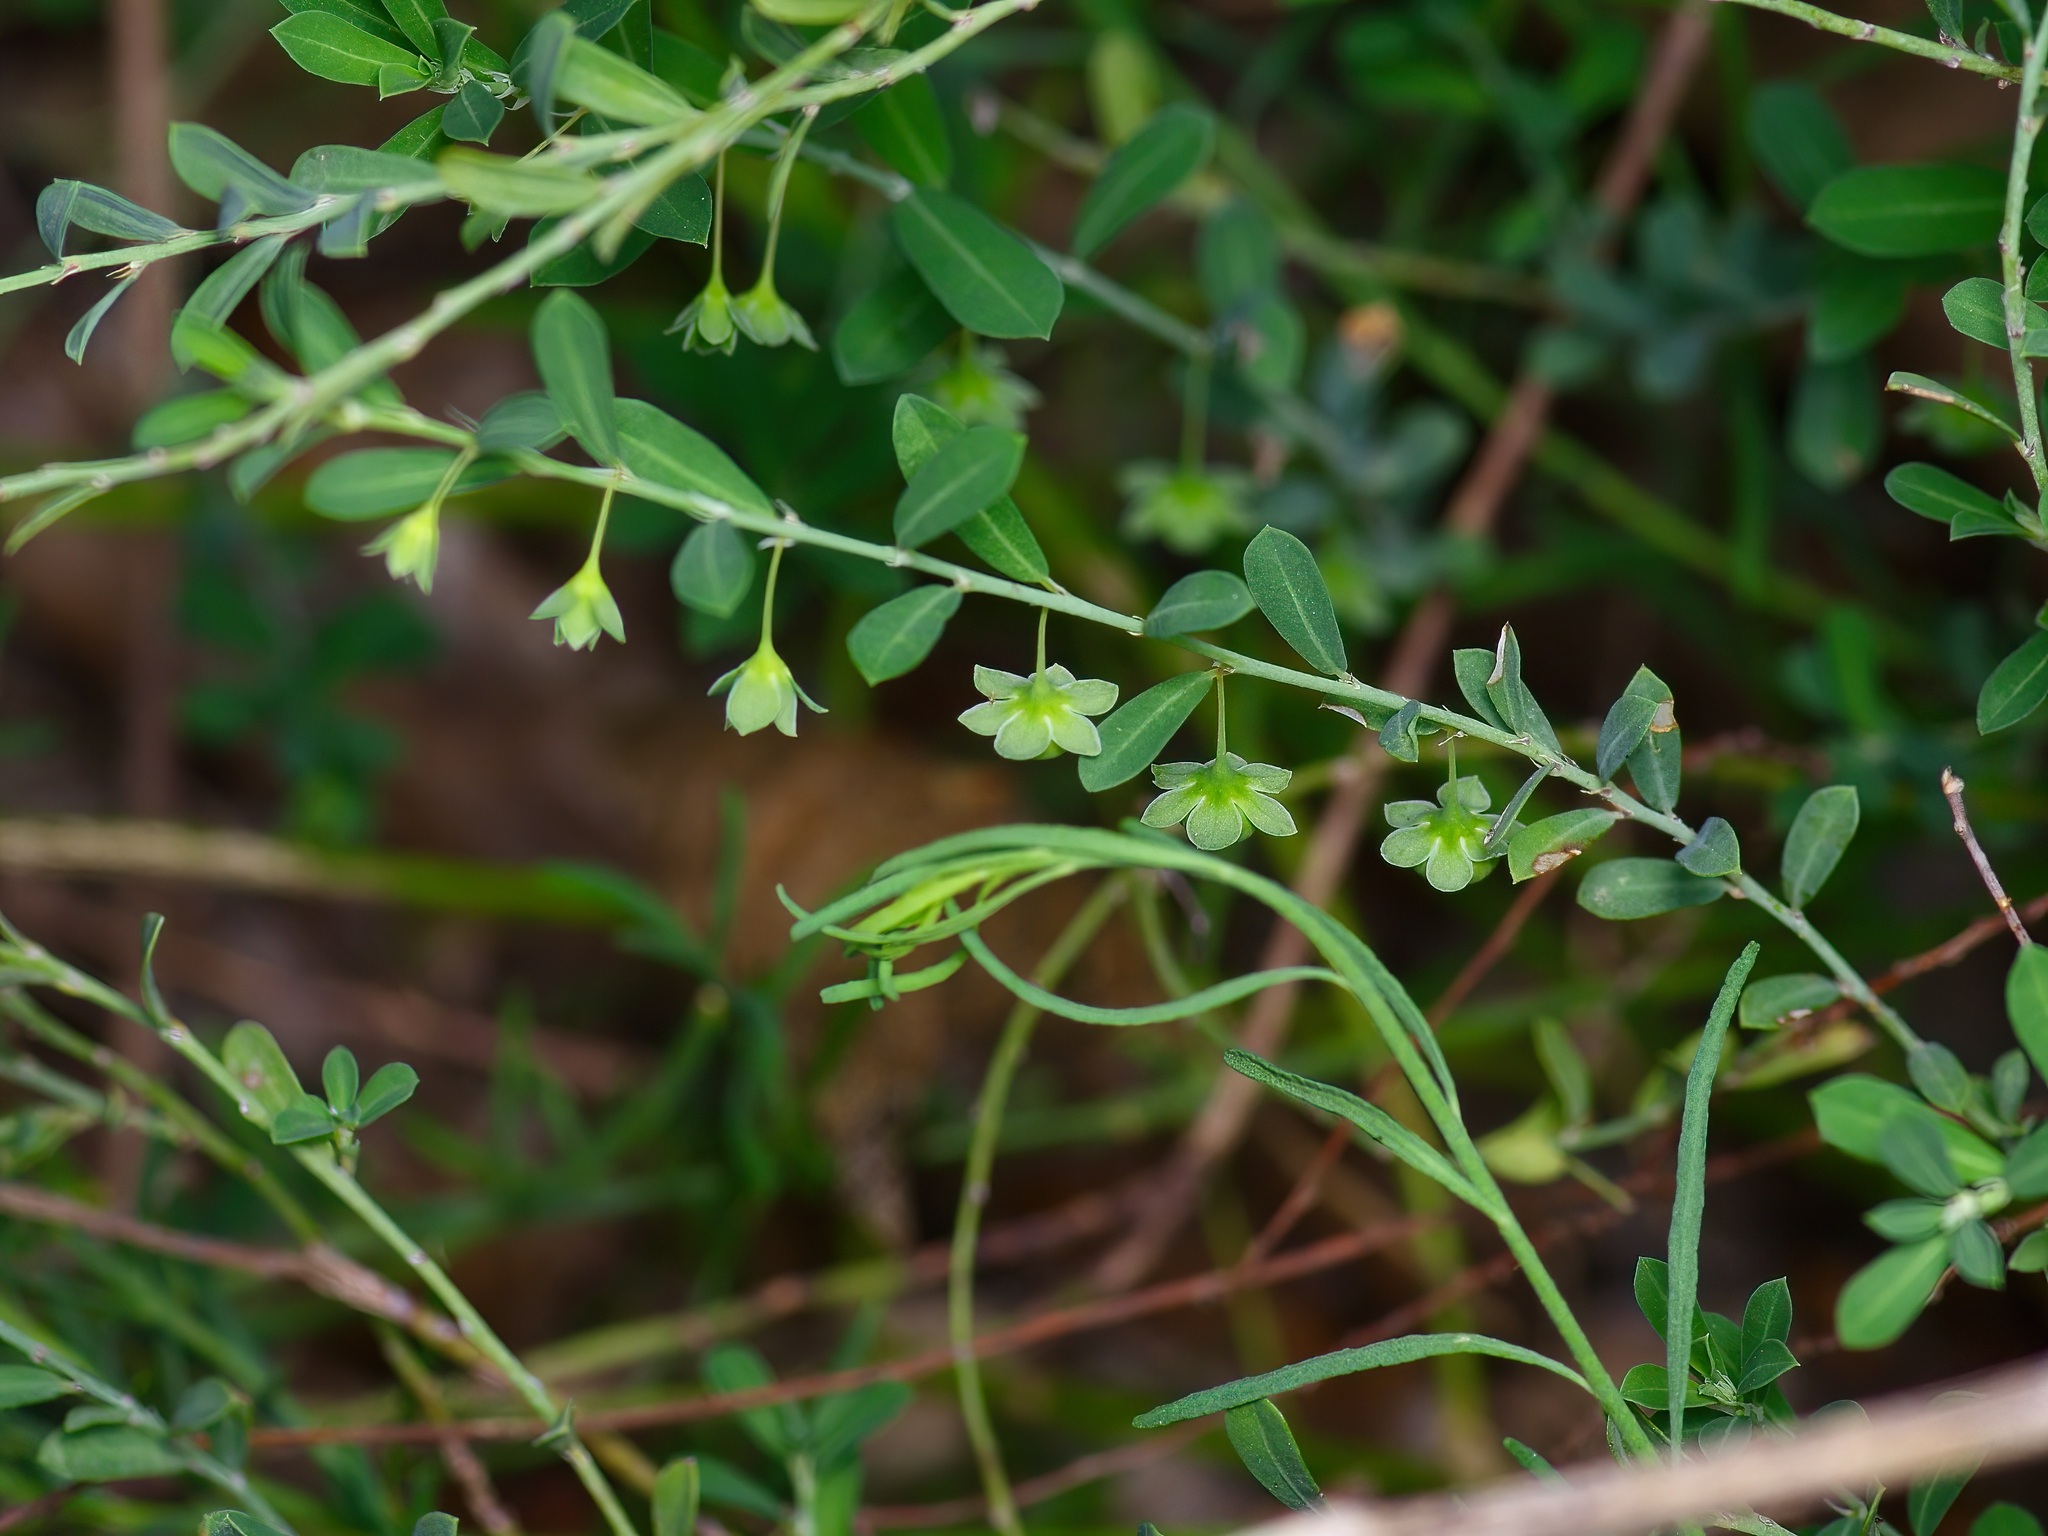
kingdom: Plantae
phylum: Tracheophyta
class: Magnoliopsida
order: Malpighiales
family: Phyllanthaceae
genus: Phyllanthus
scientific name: Phyllanthus polygonoides
